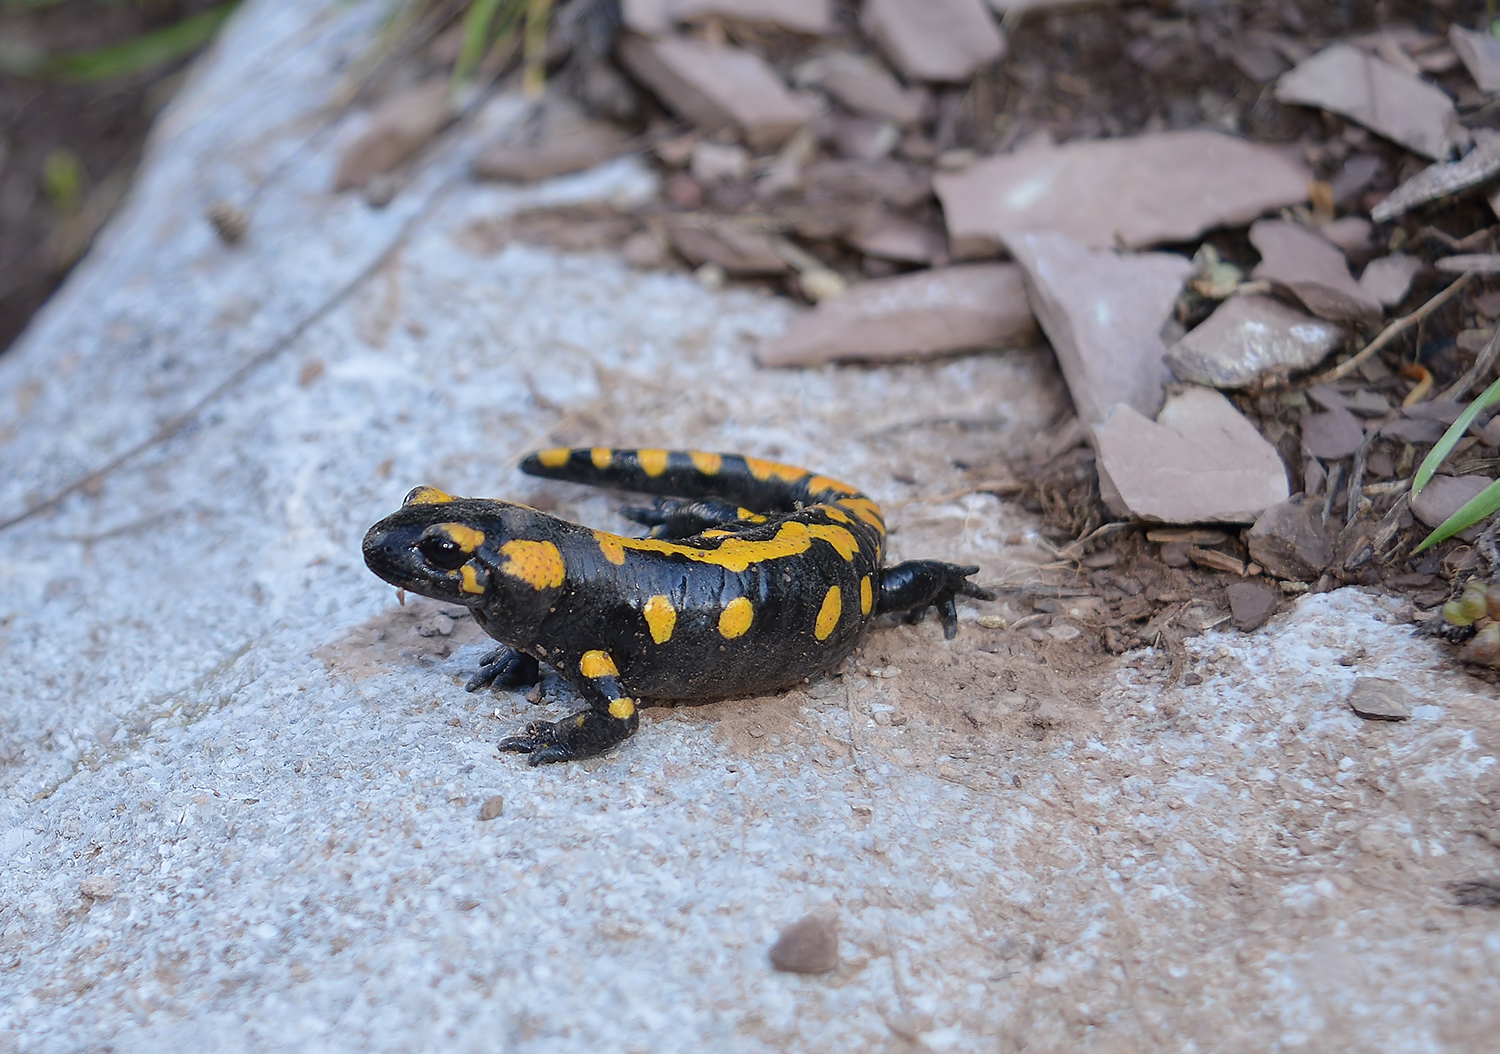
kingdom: Animalia
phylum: Chordata
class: Amphibia
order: Caudata
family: Salamandridae
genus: Salamandra
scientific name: Salamandra salamandra
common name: Fire salamander
